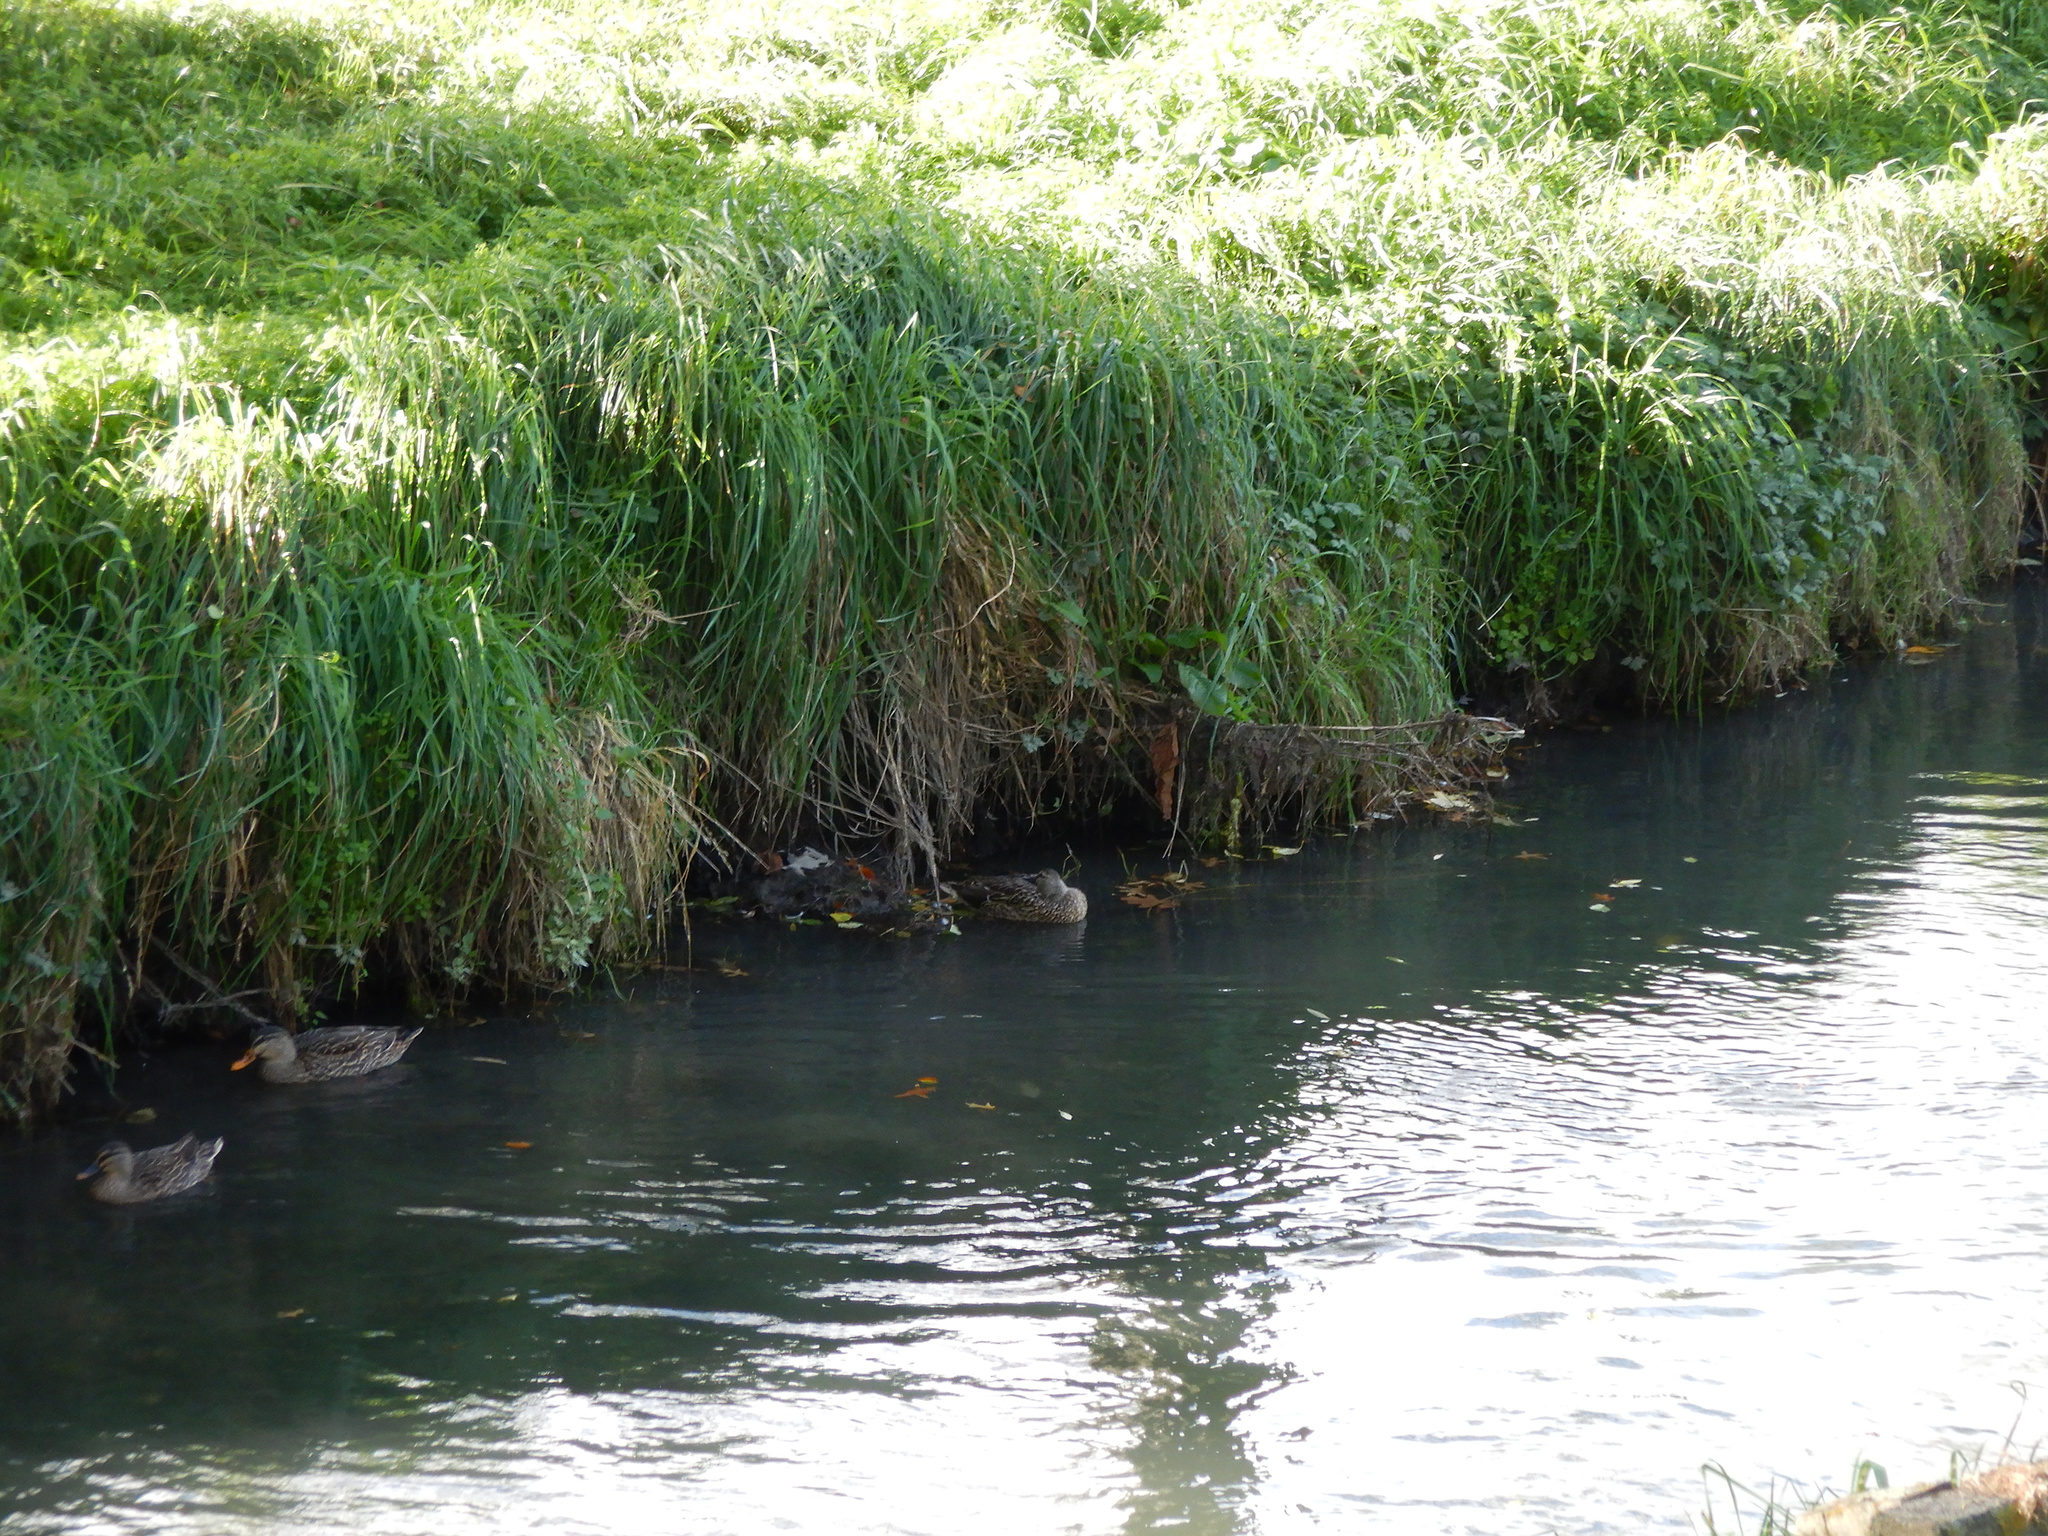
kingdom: Animalia
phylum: Chordata
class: Aves
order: Anseriformes
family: Anatidae
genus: Anas
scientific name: Anas
